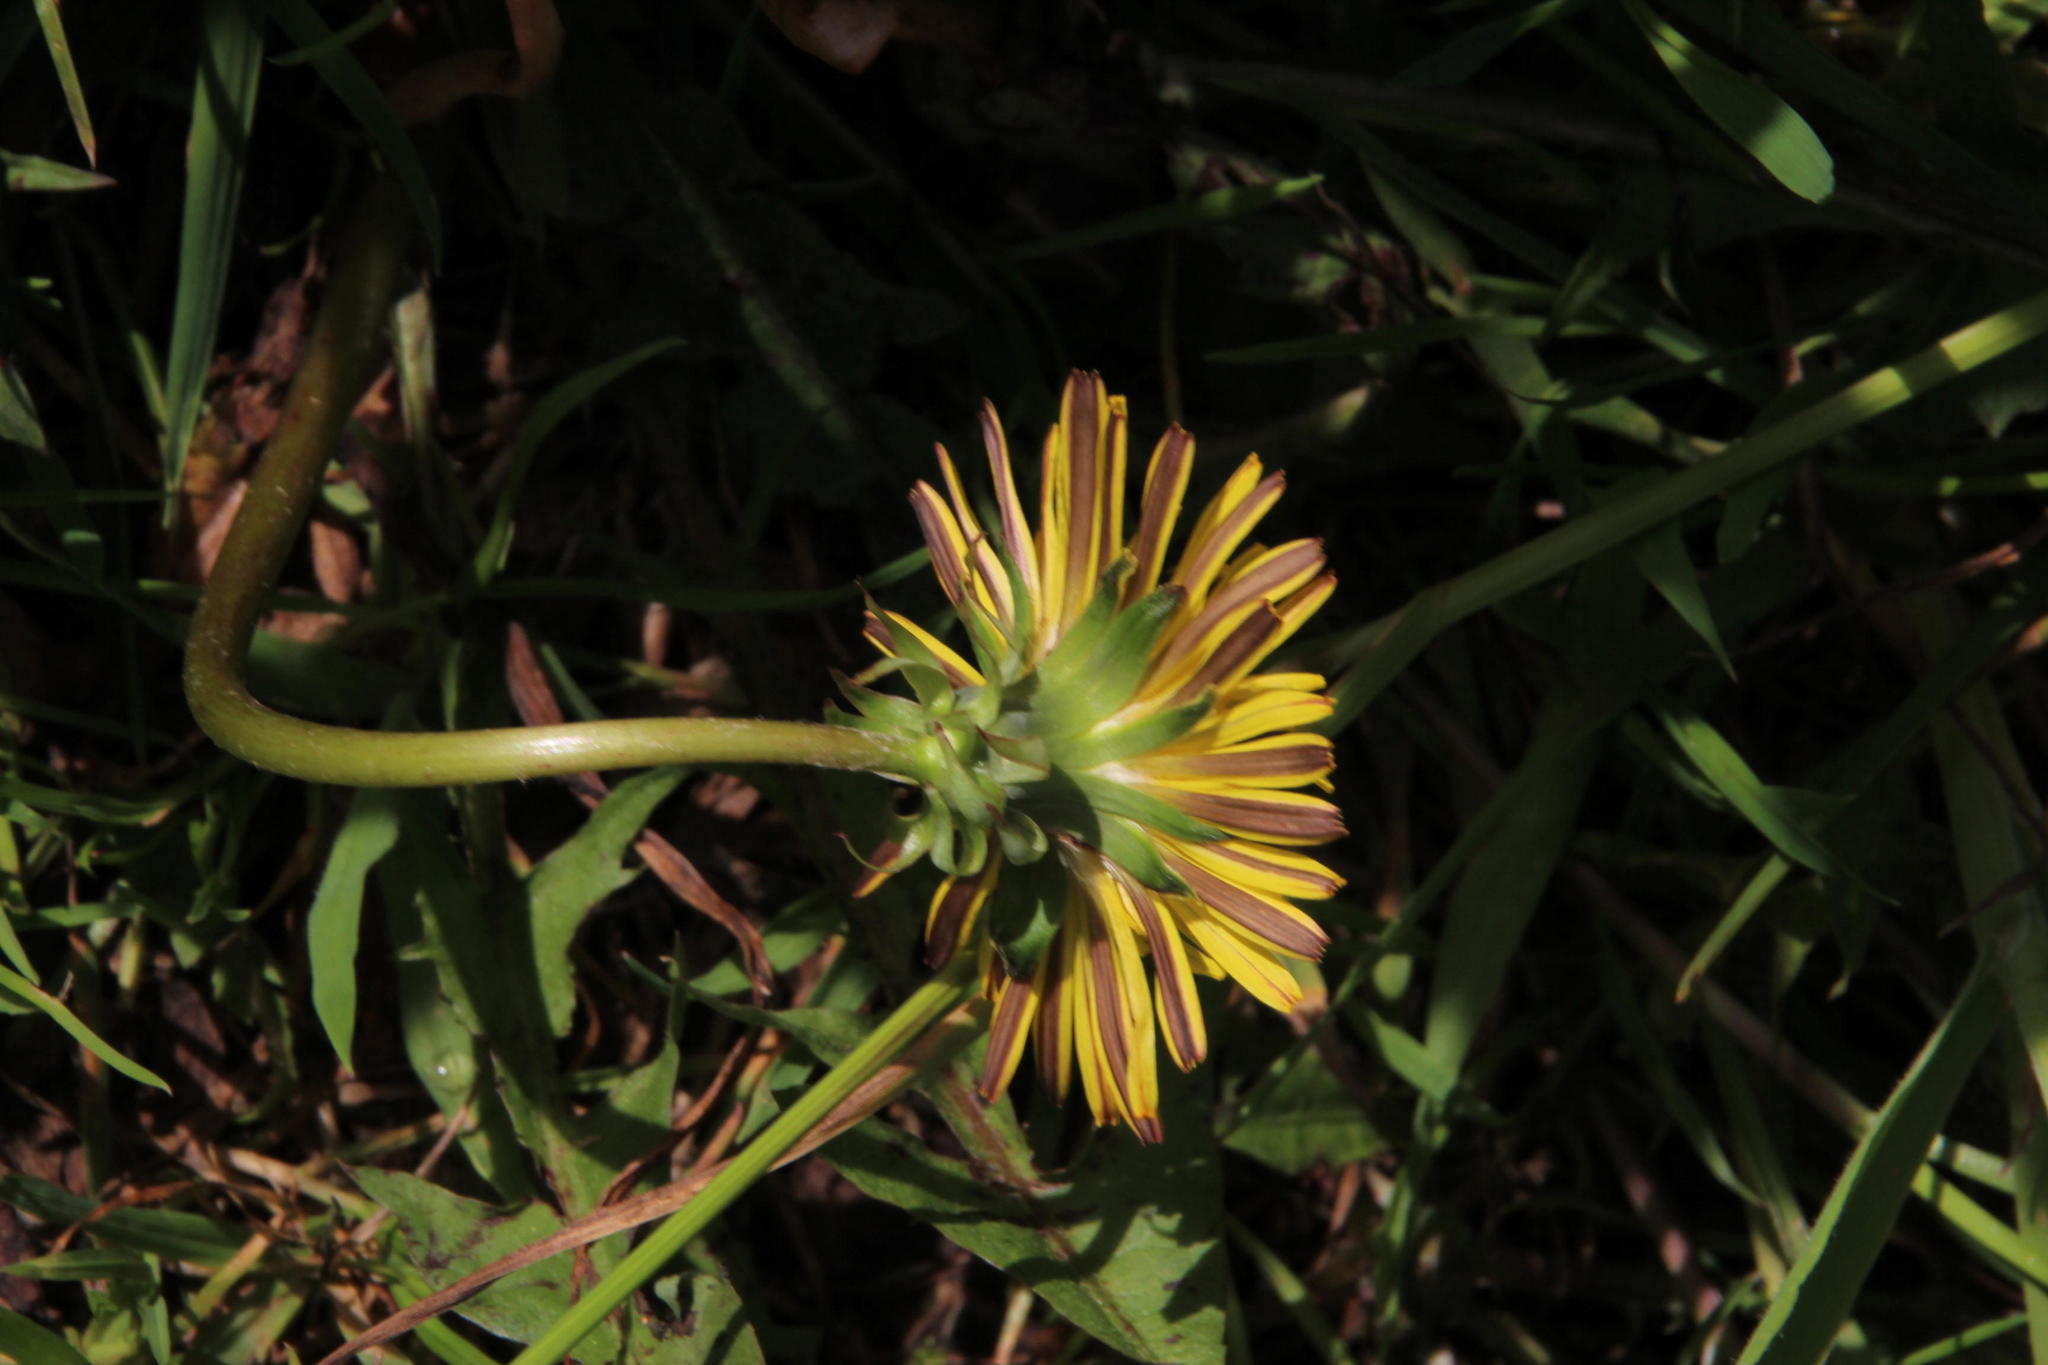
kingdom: Plantae
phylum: Tracheophyta
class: Magnoliopsida
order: Asterales
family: Asteraceae
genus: Taraxacum
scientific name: Taraxacum officinale
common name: Common dandelion
